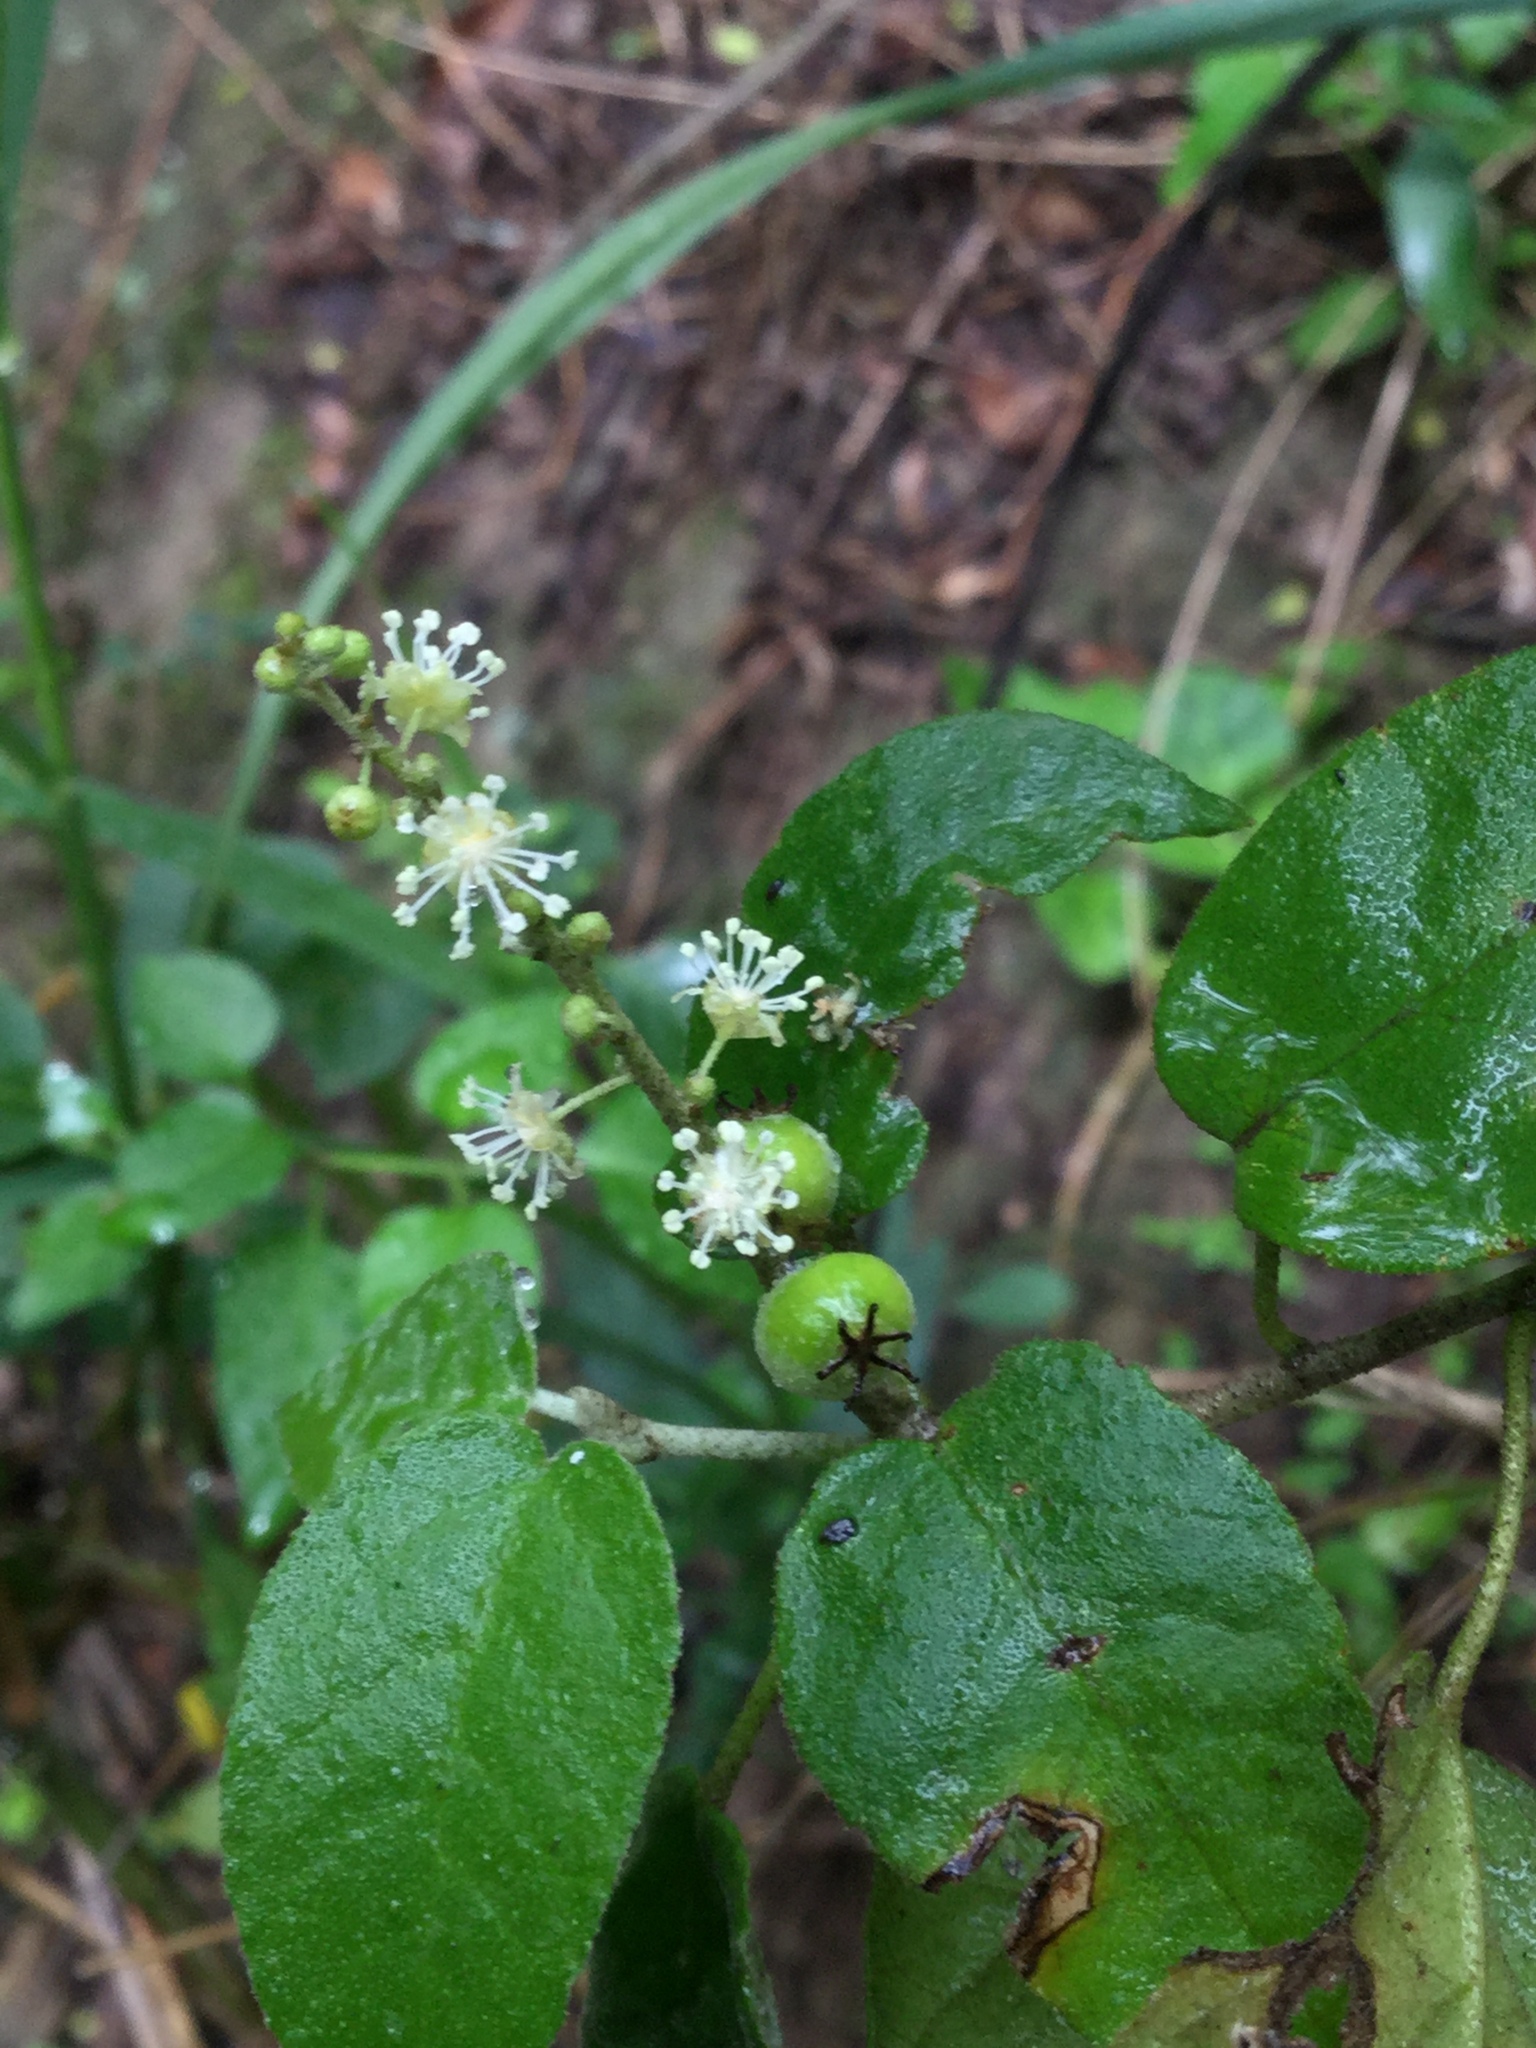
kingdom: Plantae
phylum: Tracheophyta
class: Magnoliopsida
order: Malpighiales
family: Euphorbiaceae
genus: Croton
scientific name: Croton fruticulosus
